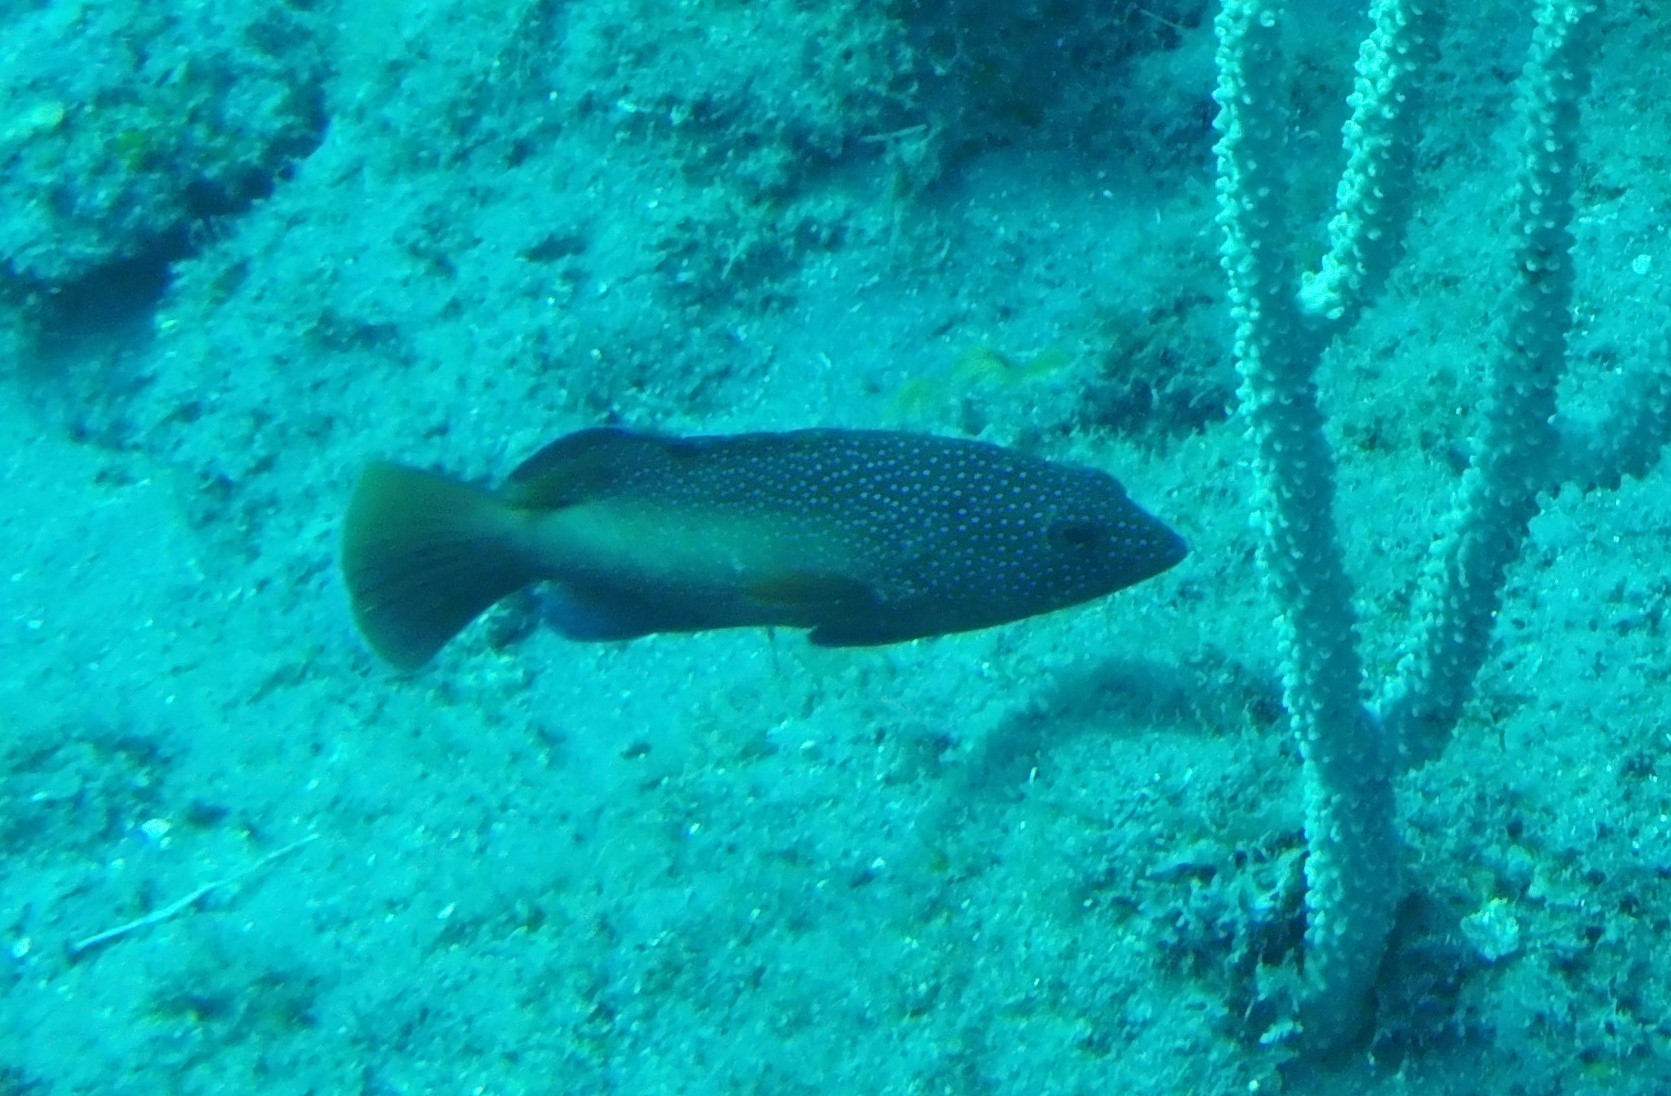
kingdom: Animalia
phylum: Chordata
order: Perciformes
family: Serranidae
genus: Cephalopholis
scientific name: Cephalopholis fulva
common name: Butterfish
